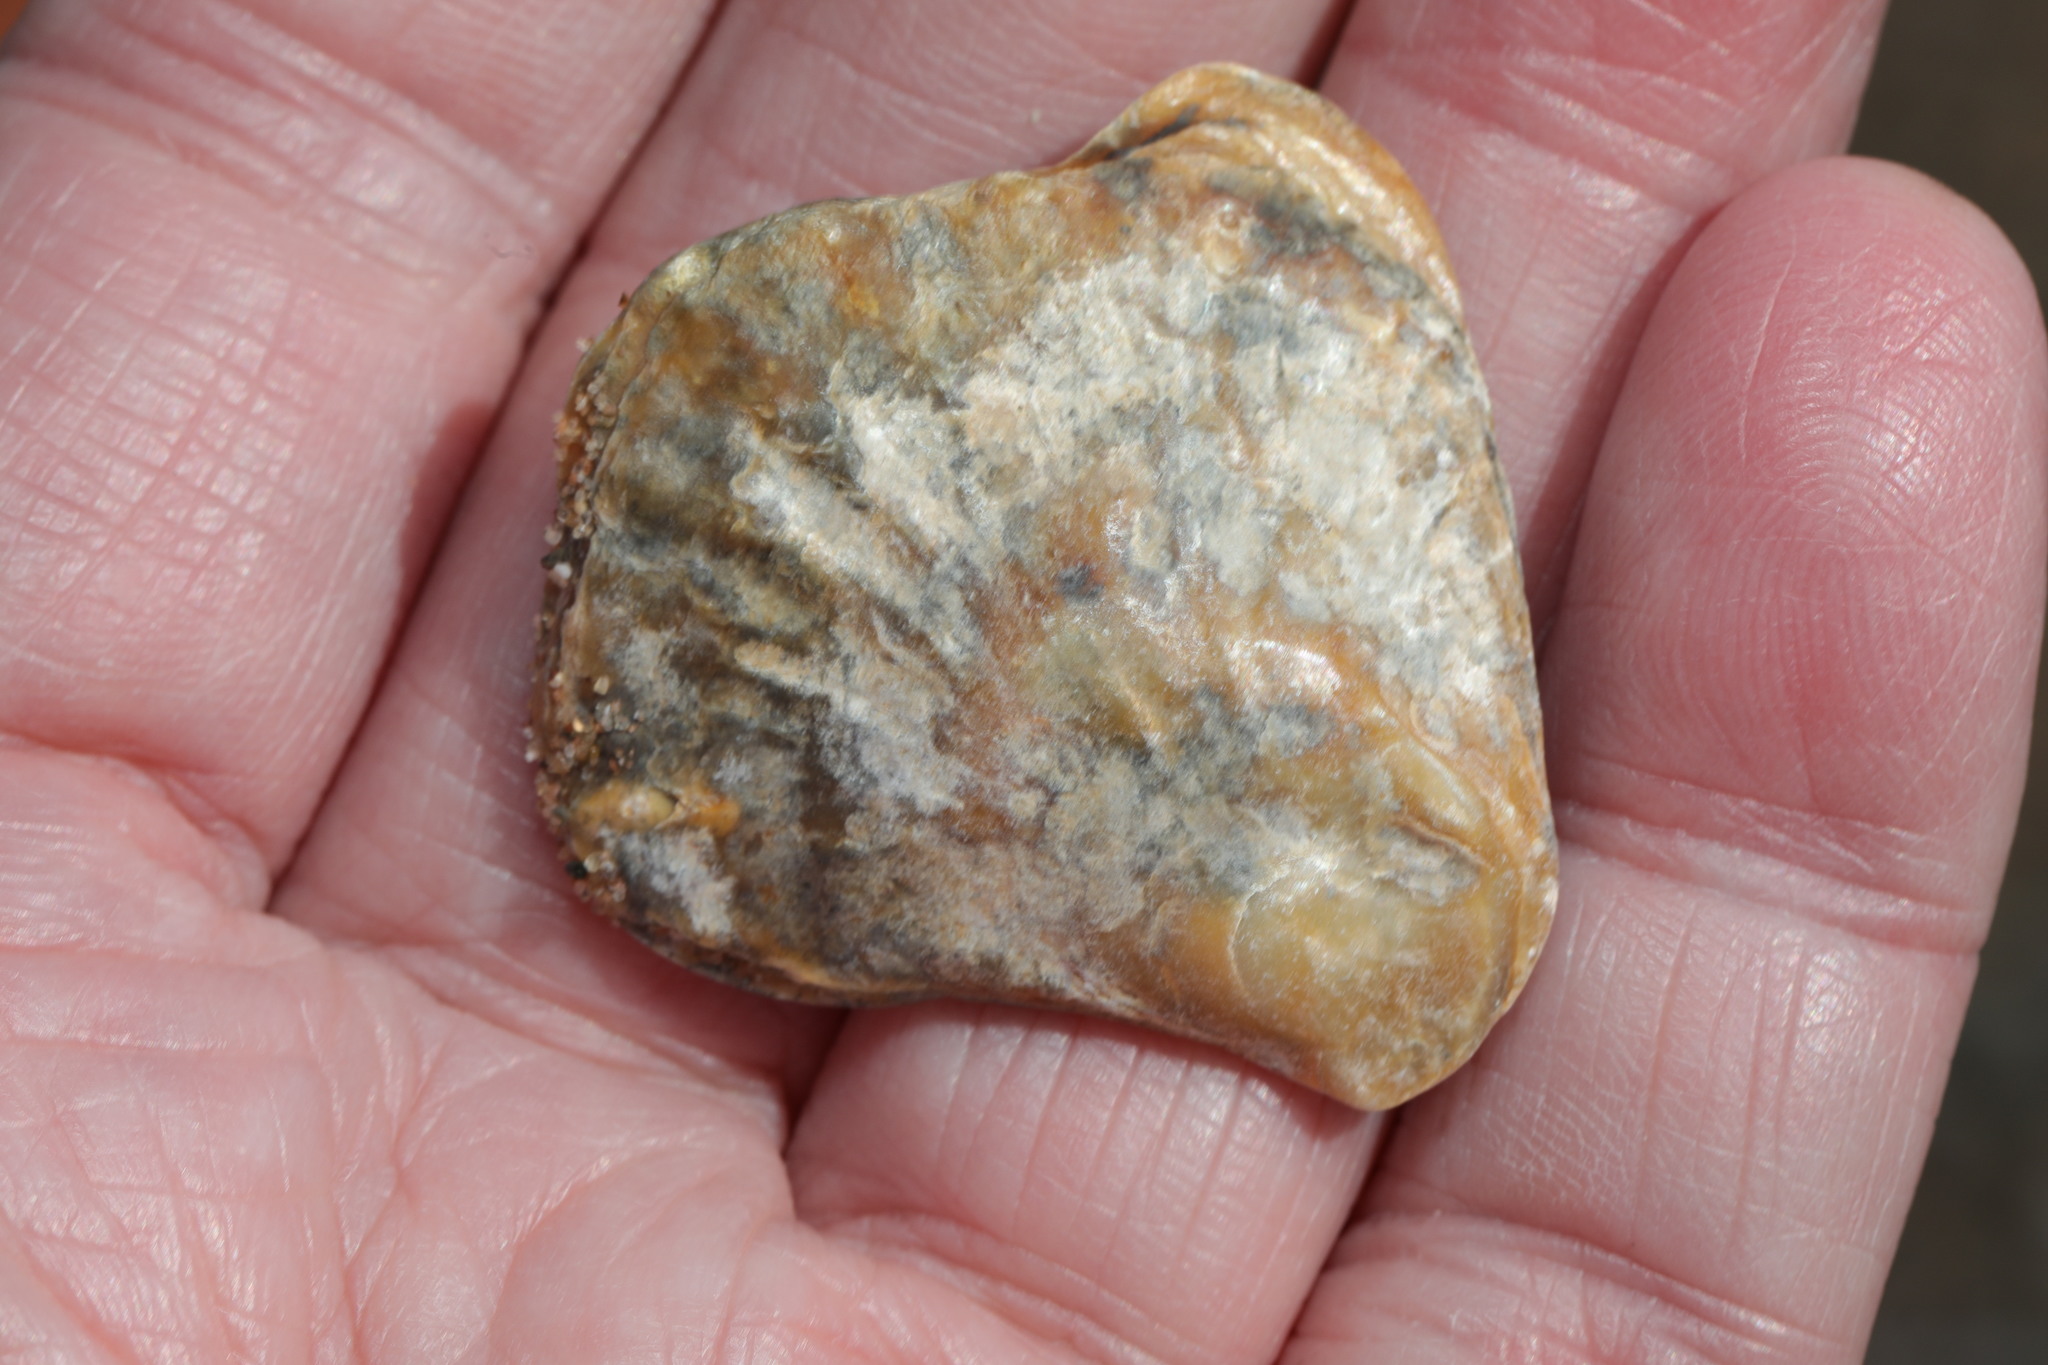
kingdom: Animalia
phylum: Mollusca
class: Bivalvia
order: Ostreida
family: Ostreidae
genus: Ostrea
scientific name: Ostrea edulis
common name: Flat oyster
